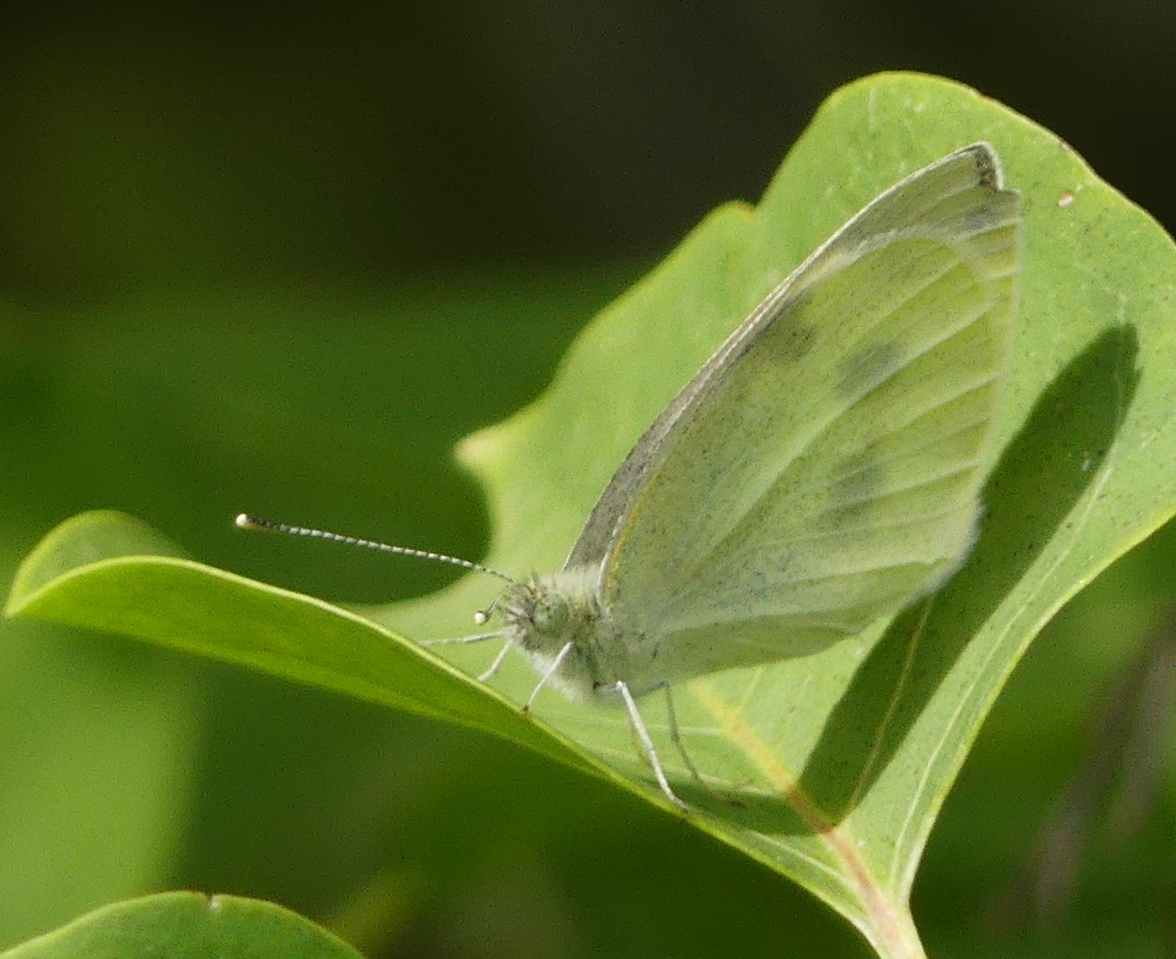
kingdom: Animalia
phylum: Arthropoda
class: Insecta
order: Lepidoptera
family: Pieridae
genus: Pieris
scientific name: Pieris rapae
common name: Small white
